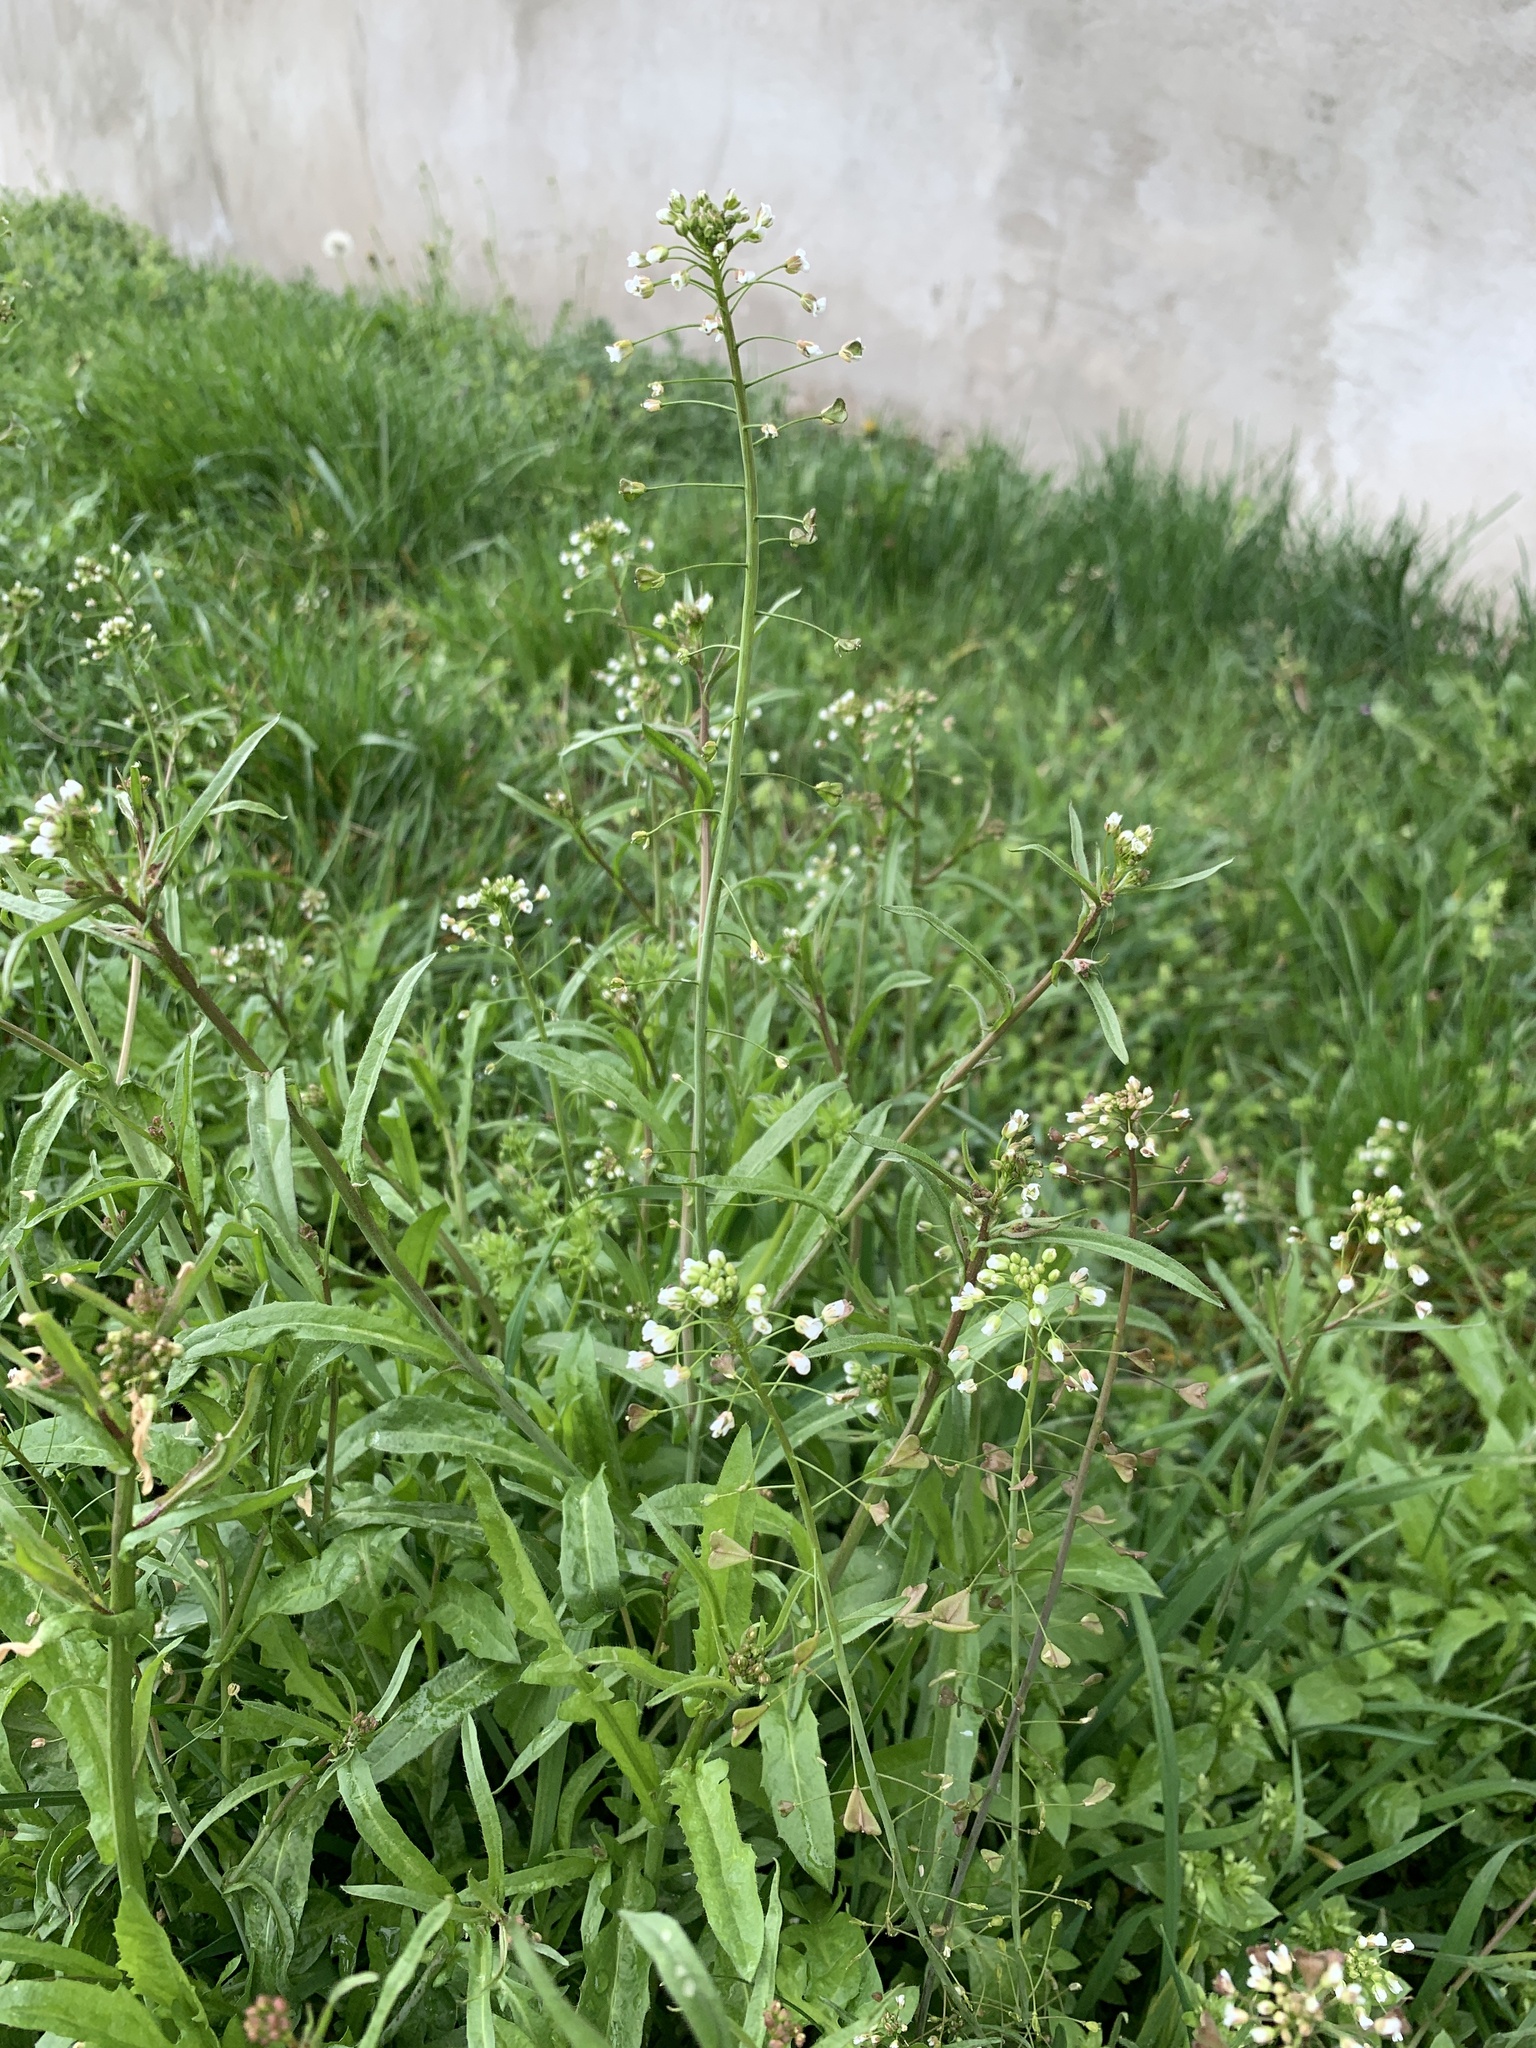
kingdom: Plantae
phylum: Tracheophyta
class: Magnoliopsida
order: Brassicales
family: Brassicaceae
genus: Capsella
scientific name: Capsella bursa-pastoris
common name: Shepherd's purse
